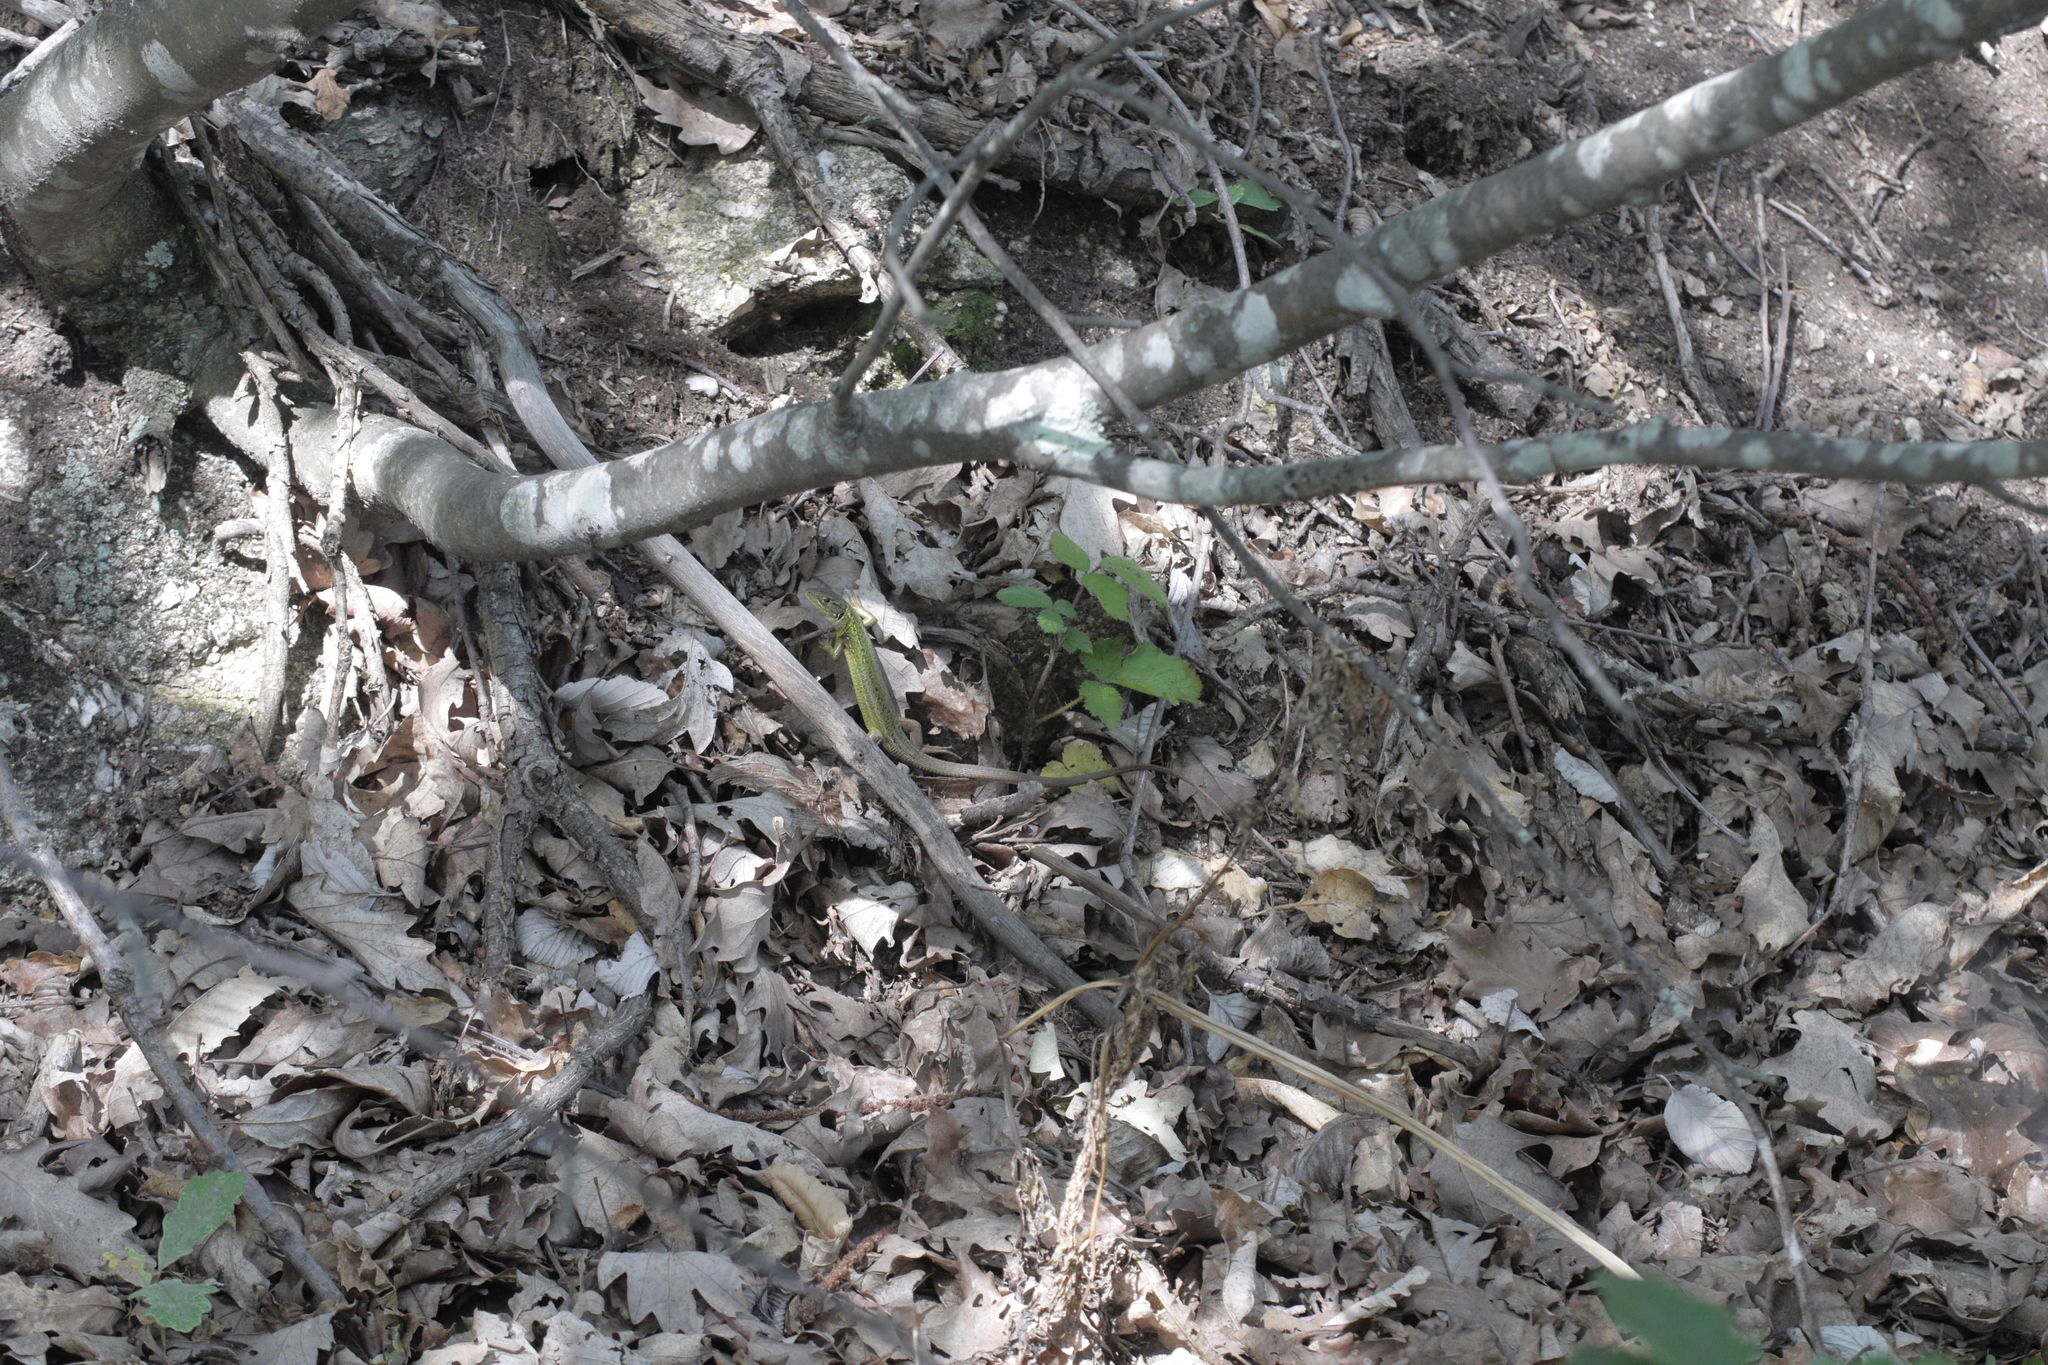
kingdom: Animalia
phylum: Chordata
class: Squamata
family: Lacertidae
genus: Lacerta
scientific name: Lacerta bilineata
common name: Western green lizard
